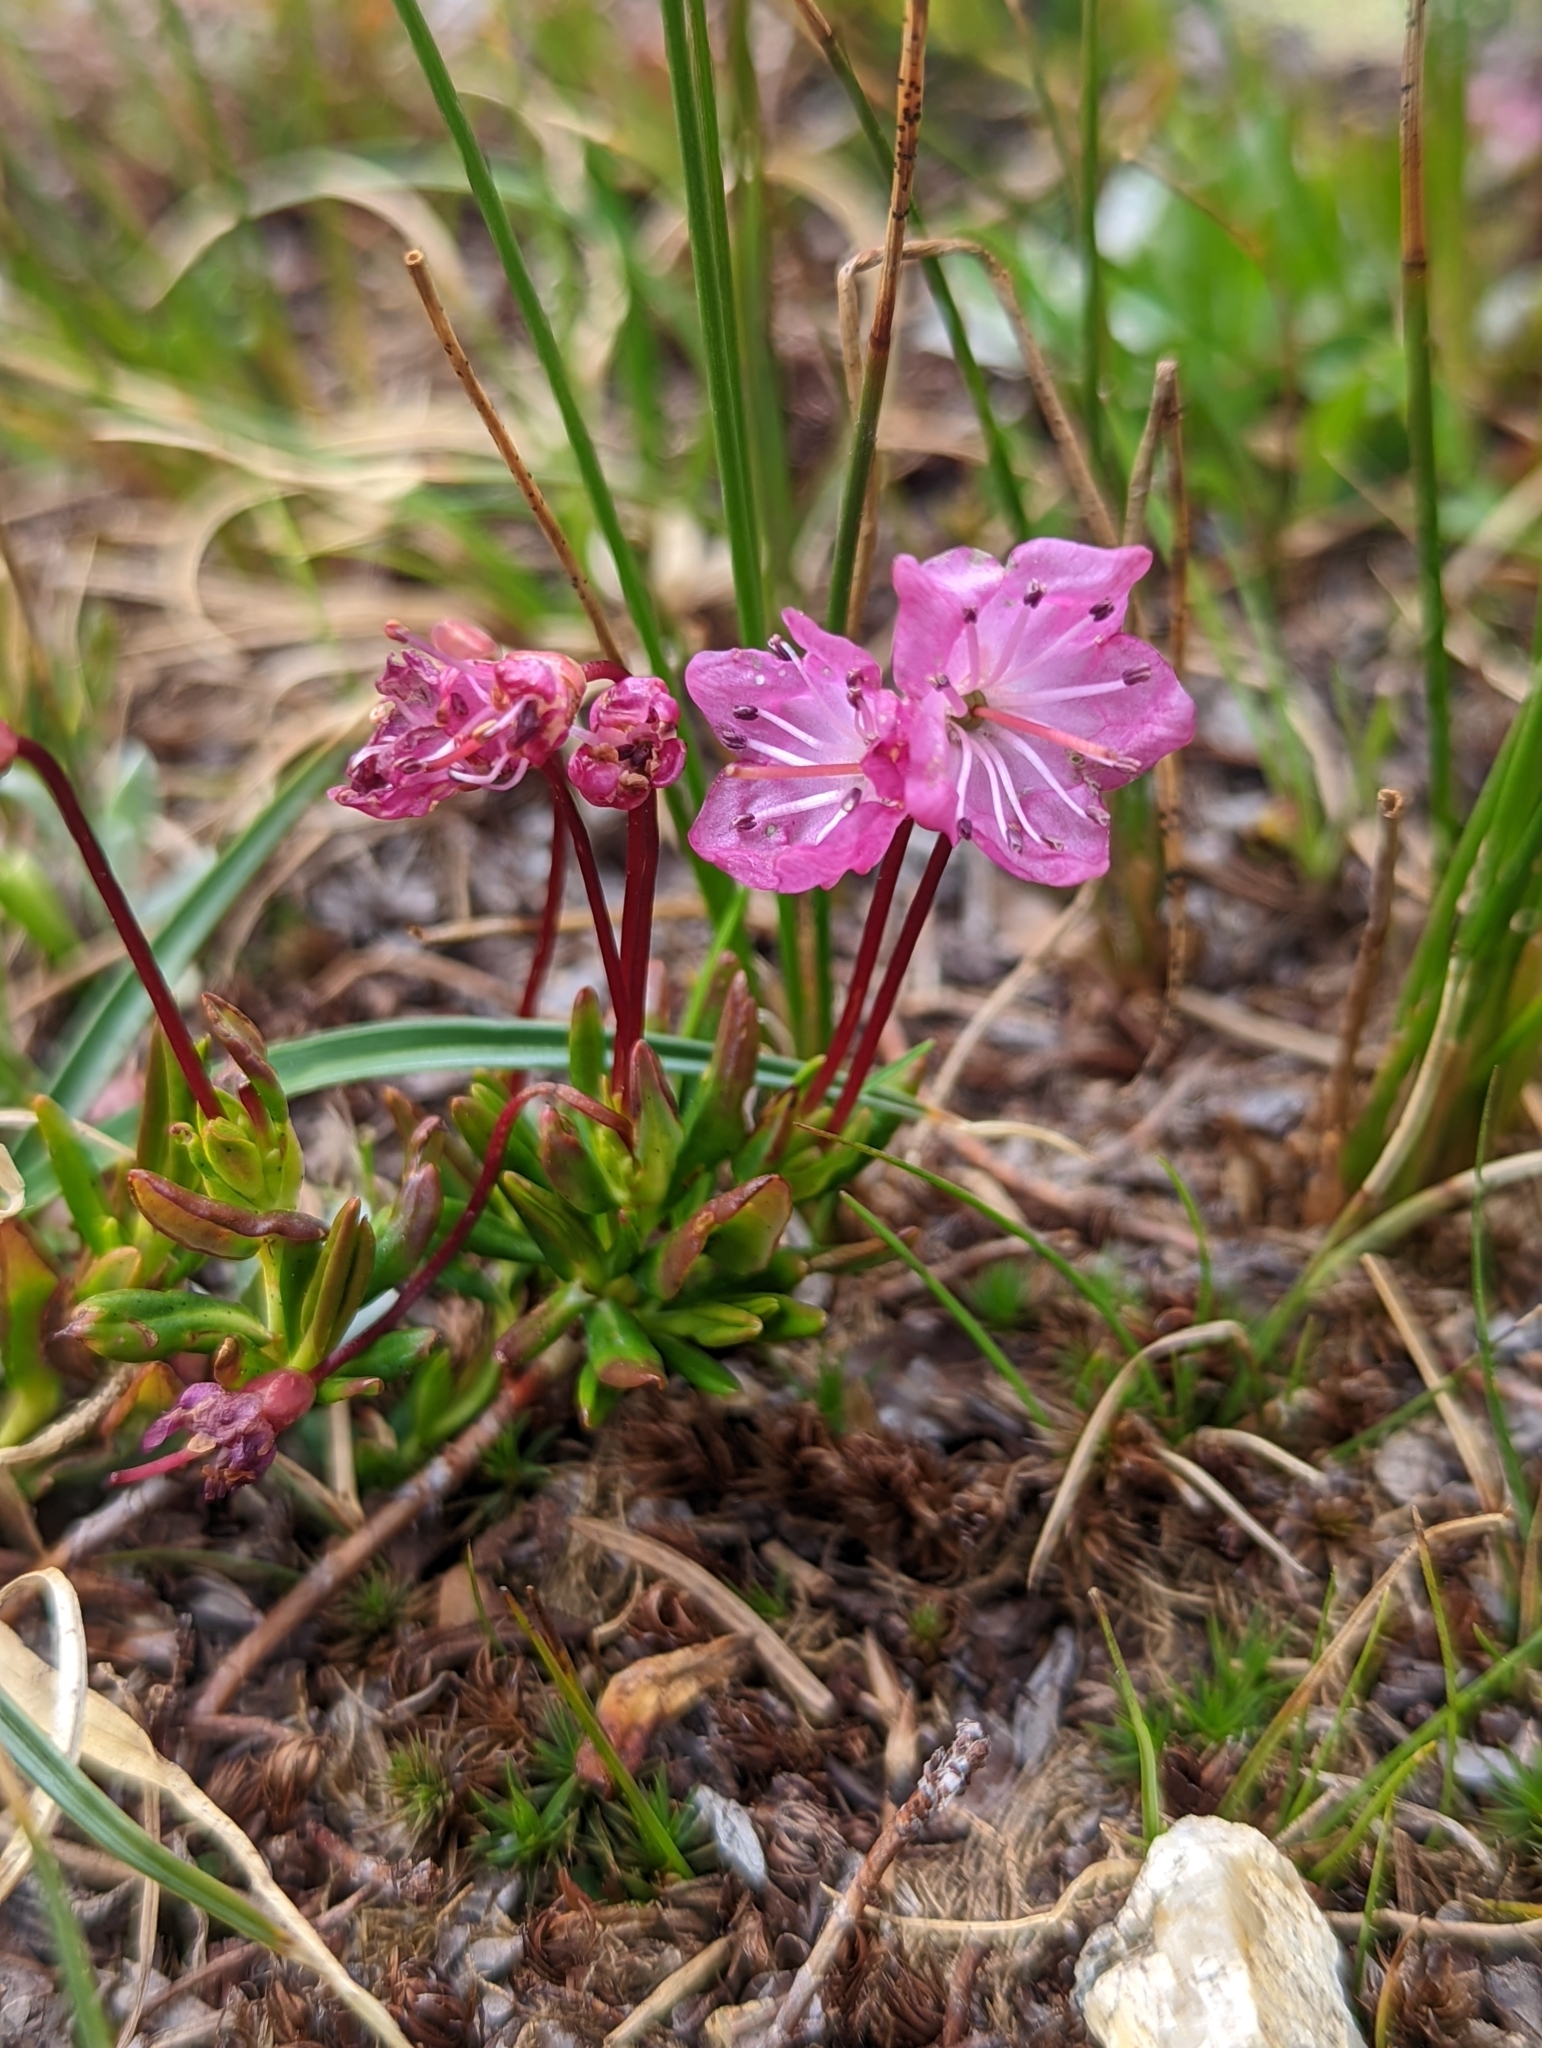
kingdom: Plantae
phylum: Tracheophyta
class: Magnoliopsida
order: Ericales
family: Ericaceae
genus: Kalmia
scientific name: Kalmia microphylla
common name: Alpine bog laurel
